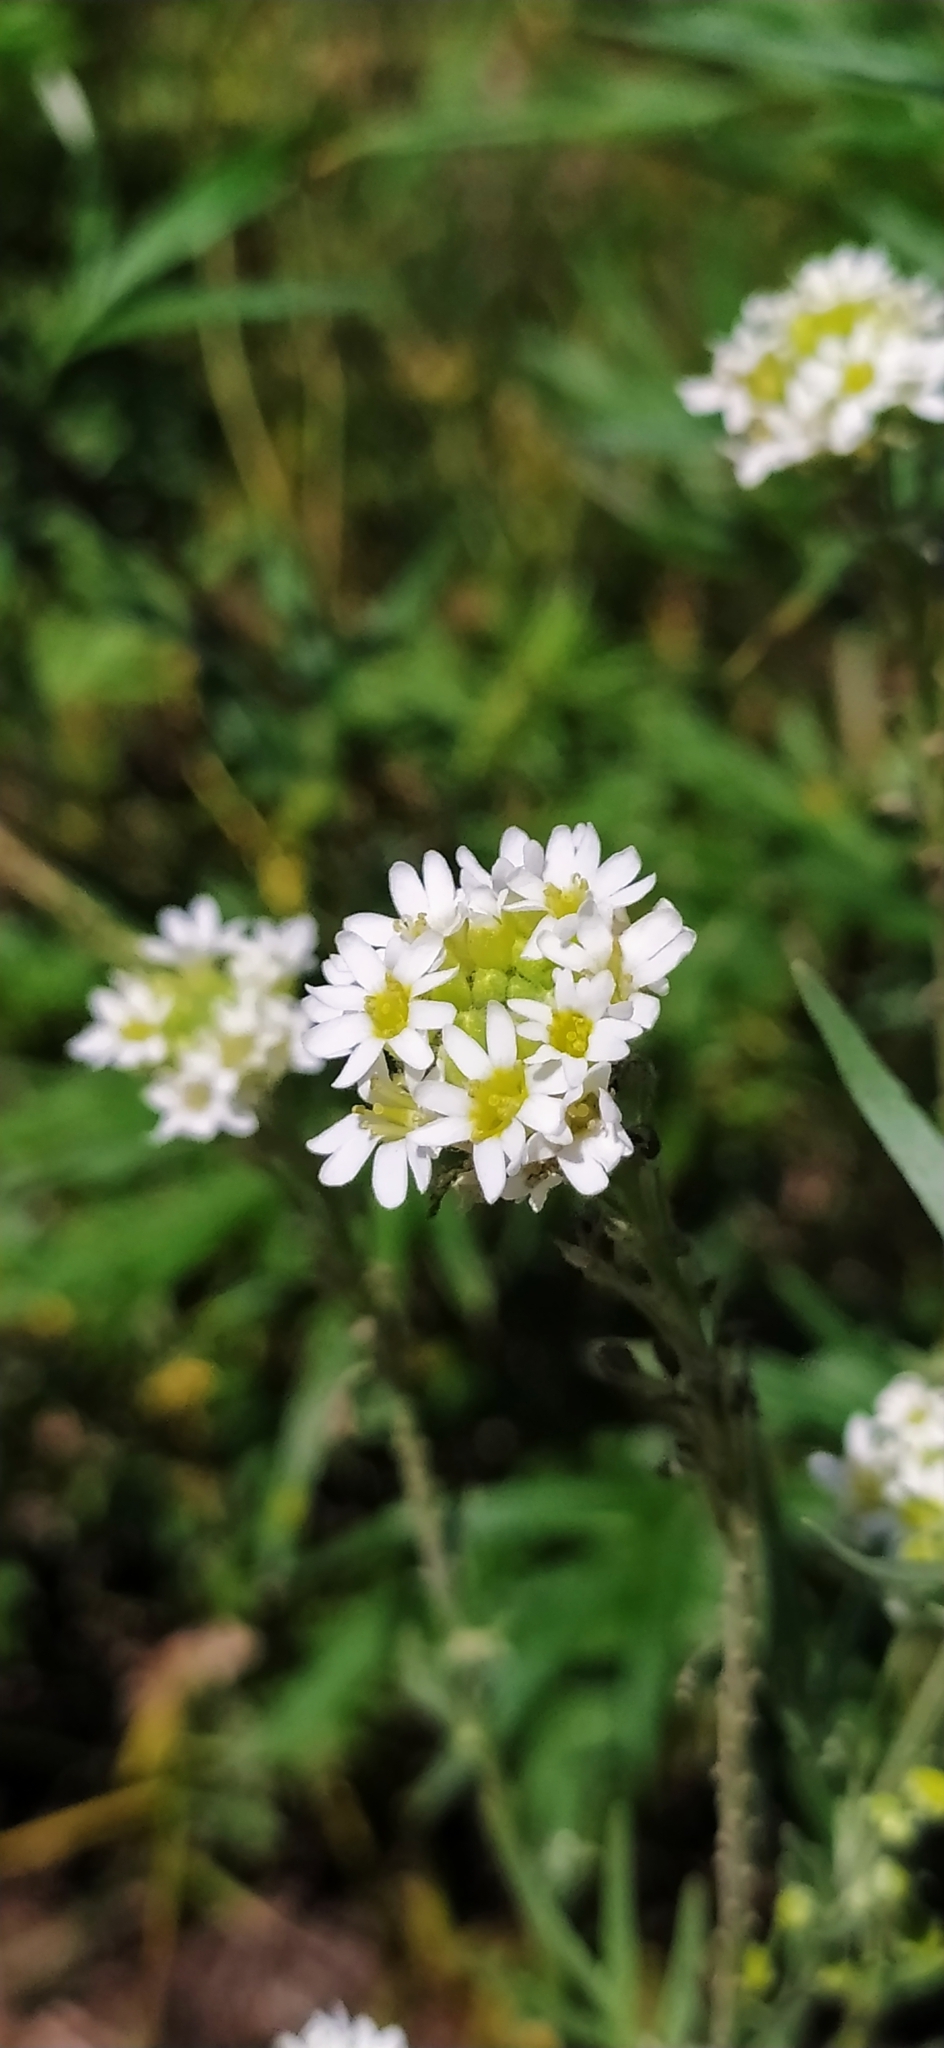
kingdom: Plantae
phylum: Tracheophyta
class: Magnoliopsida
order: Brassicales
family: Brassicaceae
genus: Berteroa
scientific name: Berteroa incana
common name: Hoary alison
